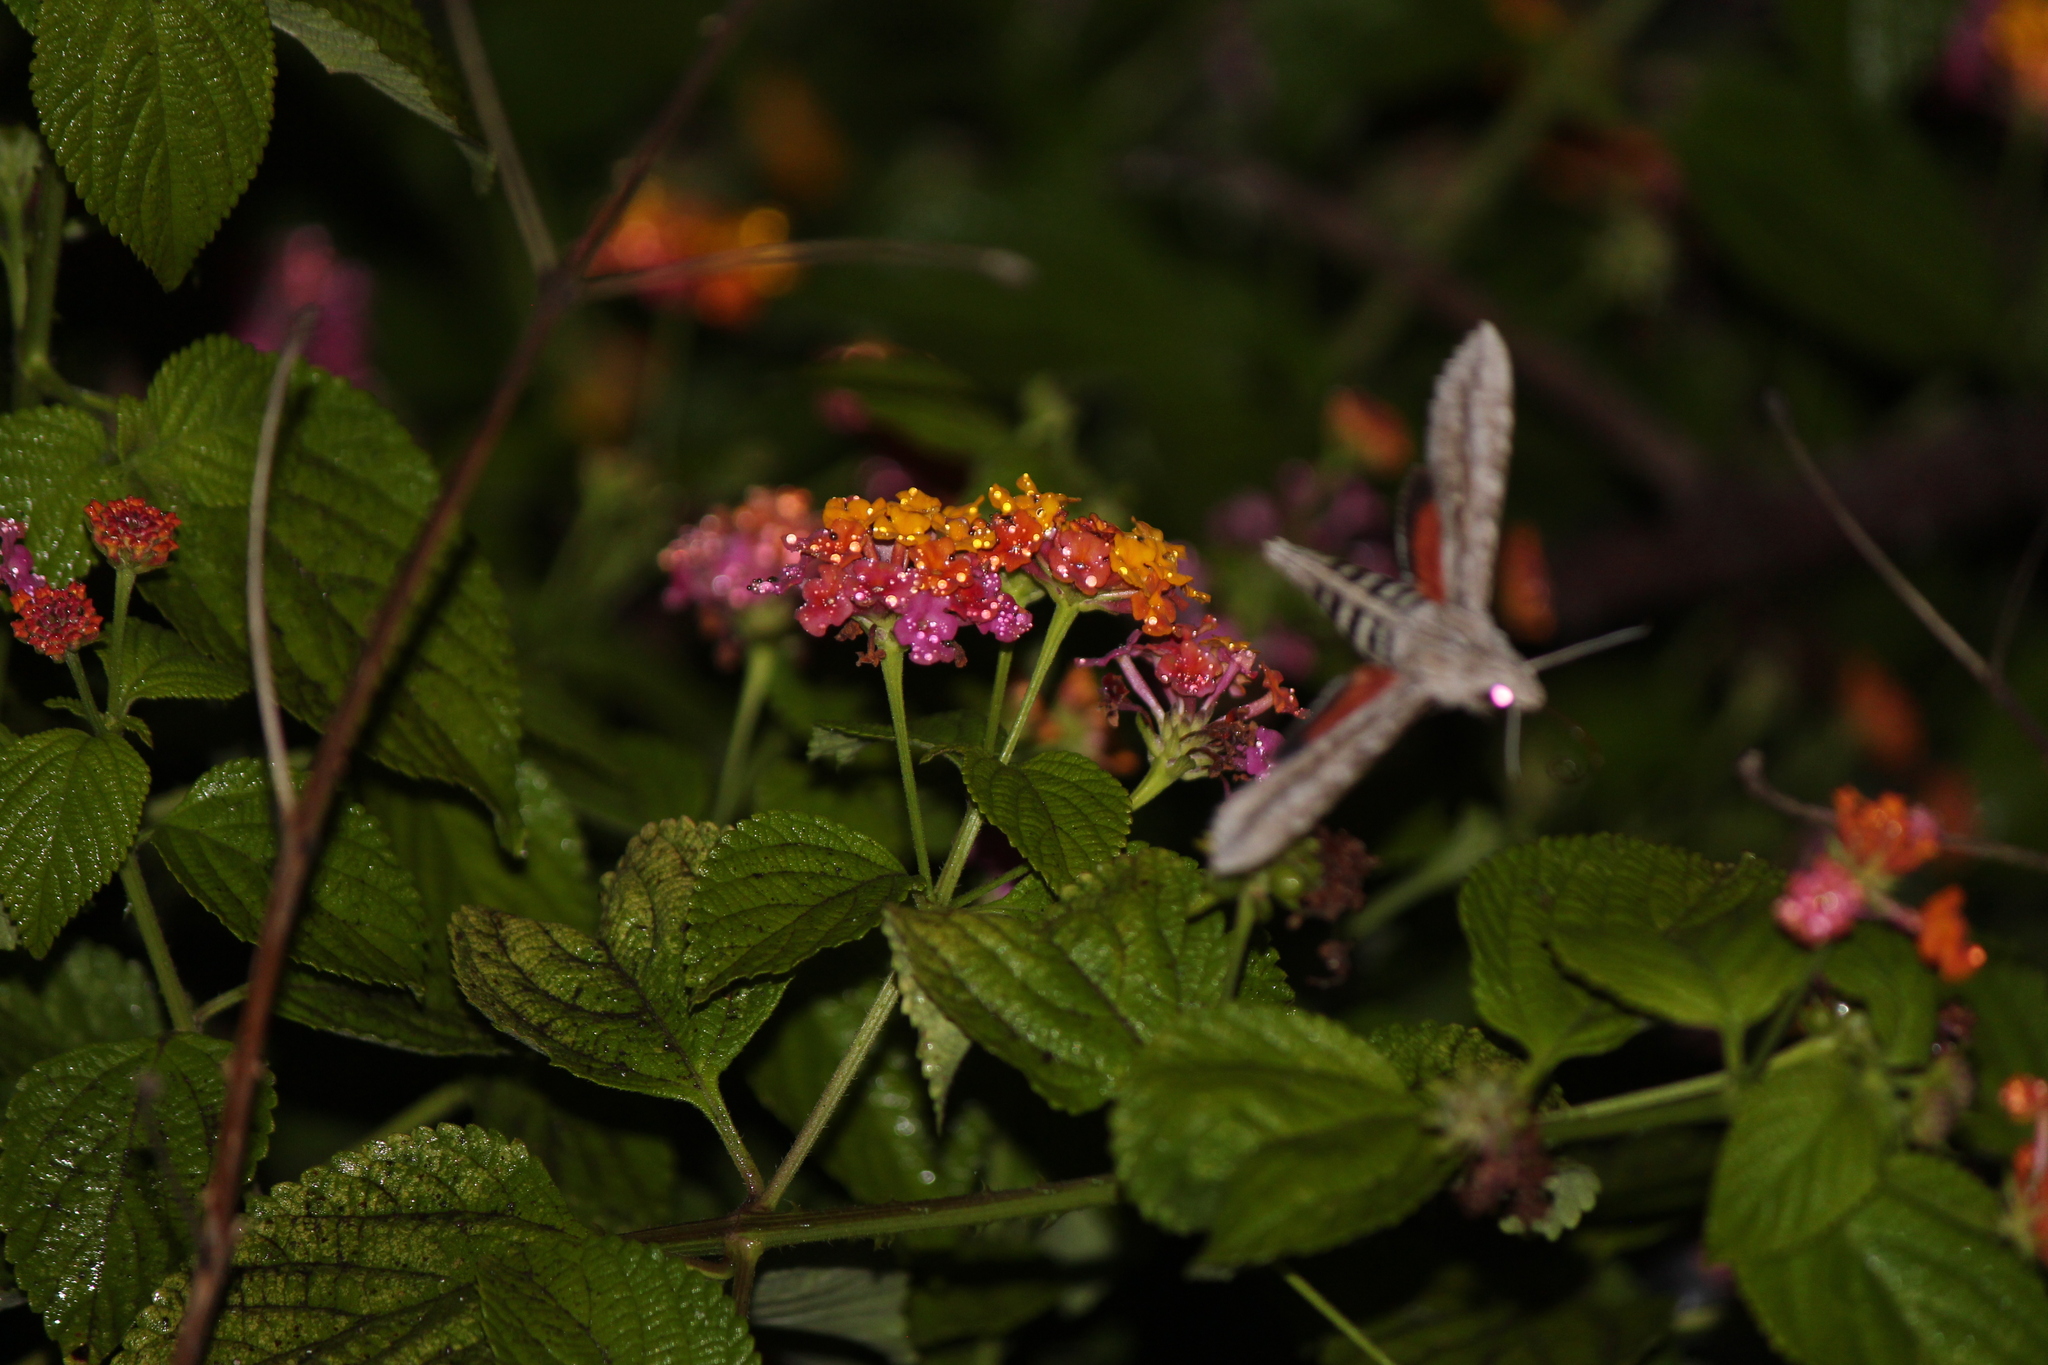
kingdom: Animalia
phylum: Arthropoda
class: Insecta
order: Lepidoptera
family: Sphingidae
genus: Erinnyis
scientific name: Erinnyis ello
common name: Ello sphinx
